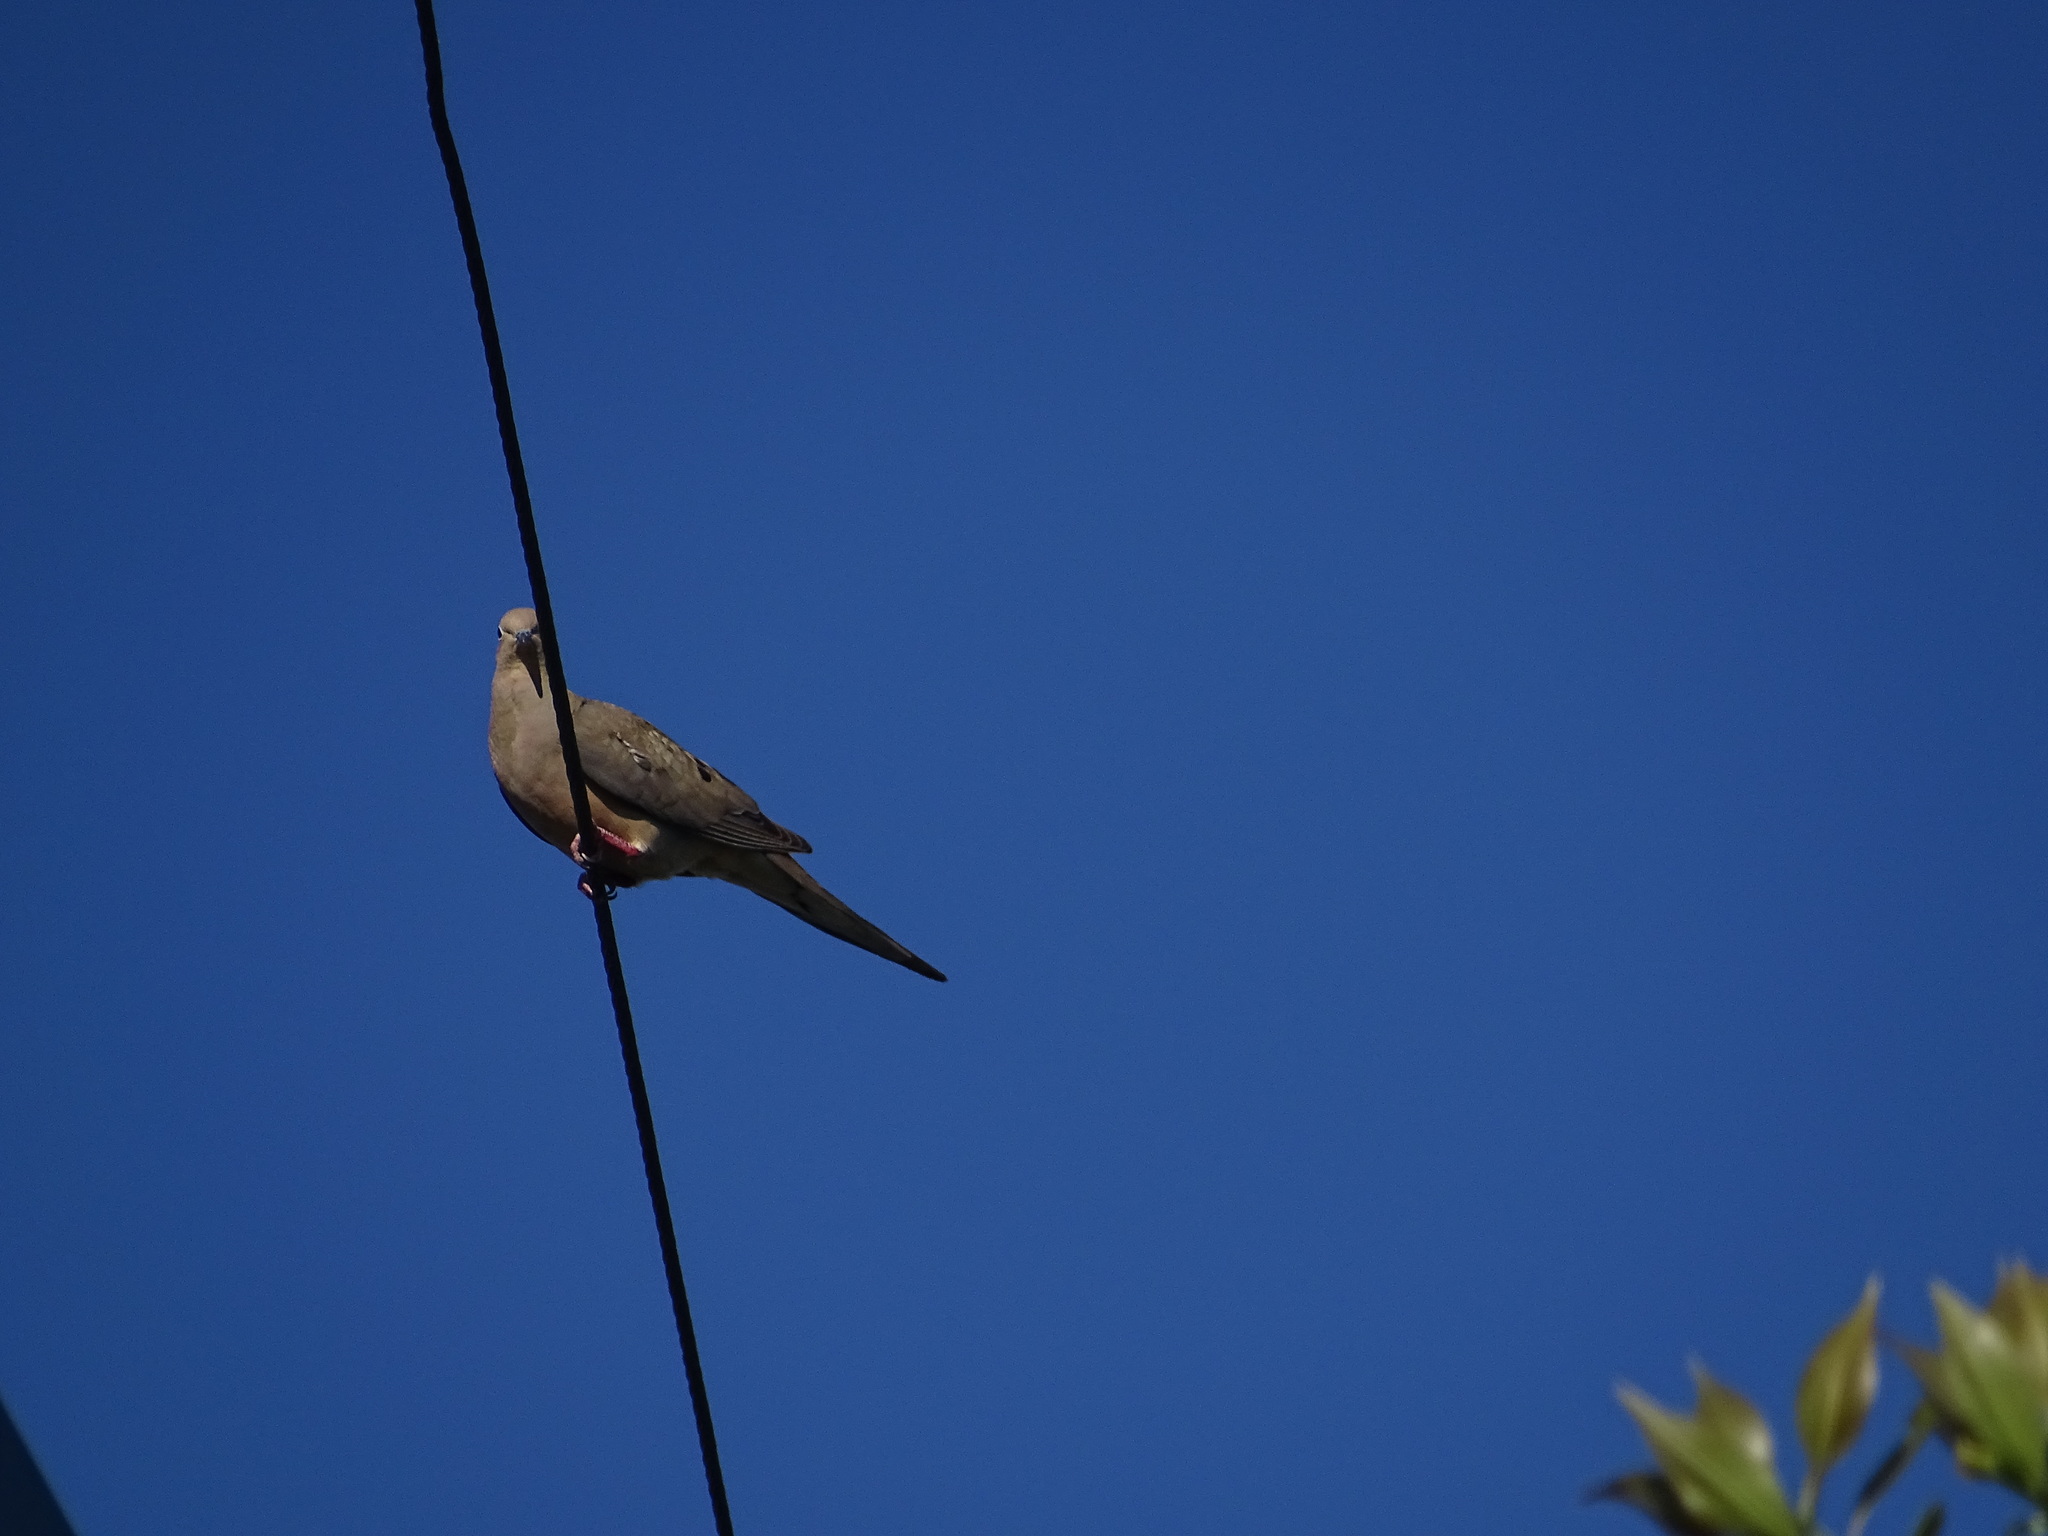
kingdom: Animalia
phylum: Chordata
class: Aves
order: Columbiformes
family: Columbidae
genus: Zenaida
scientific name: Zenaida macroura
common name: Mourning dove
